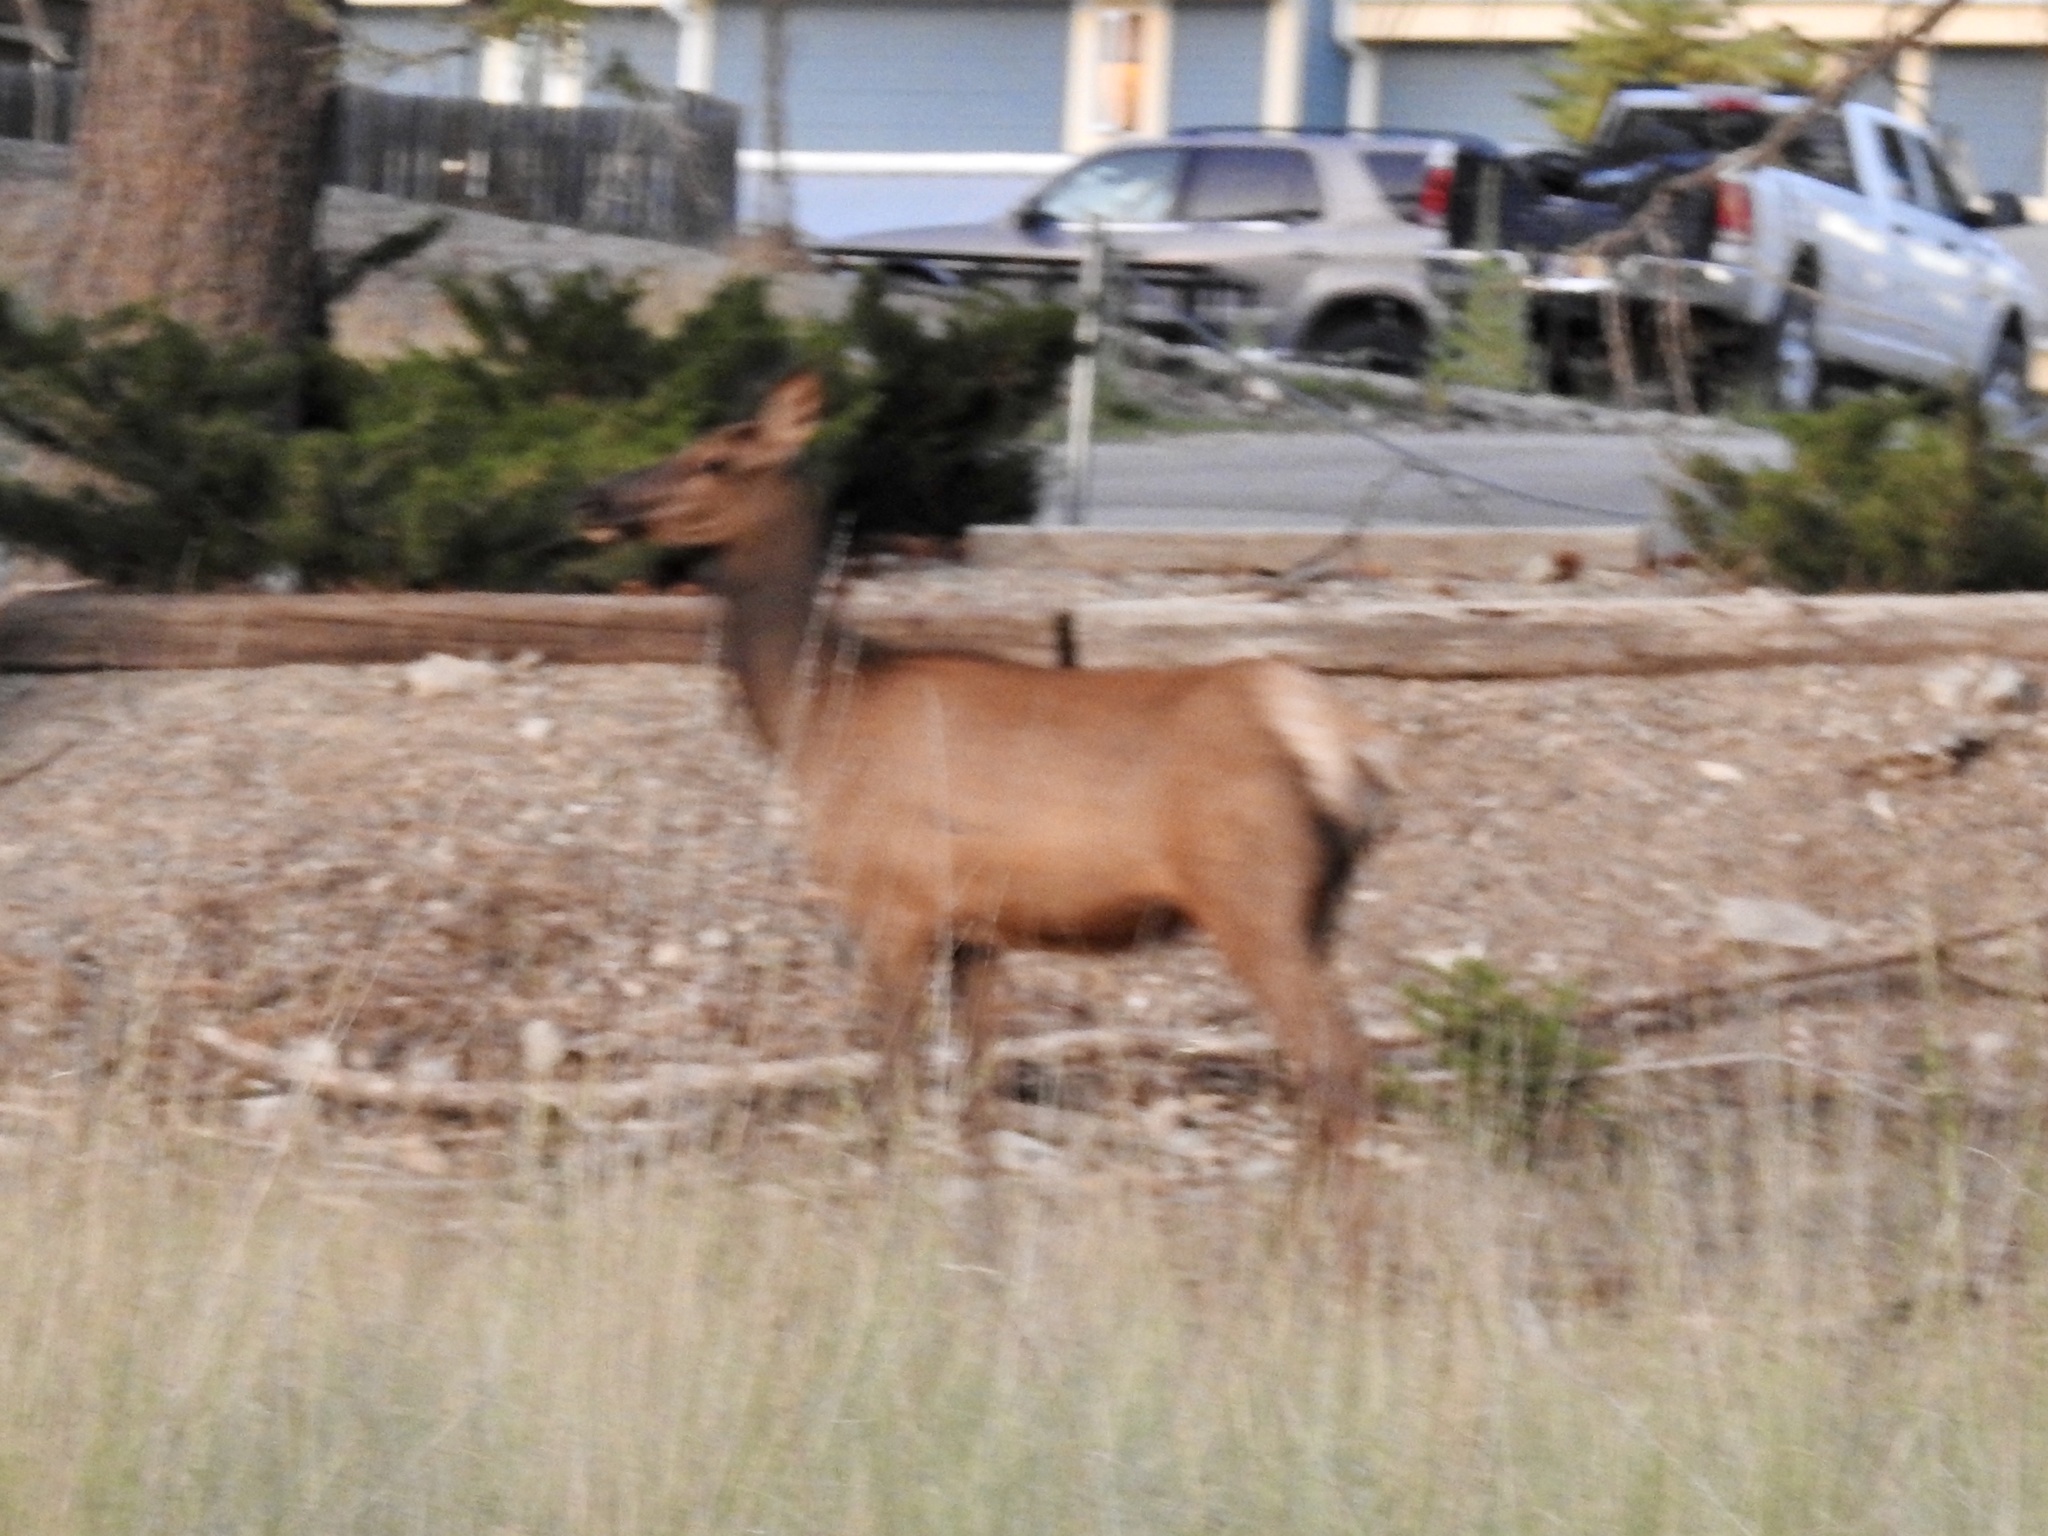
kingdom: Animalia
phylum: Chordata
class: Mammalia
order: Artiodactyla
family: Cervidae
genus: Cervus
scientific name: Cervus elaphus
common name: Red deer
